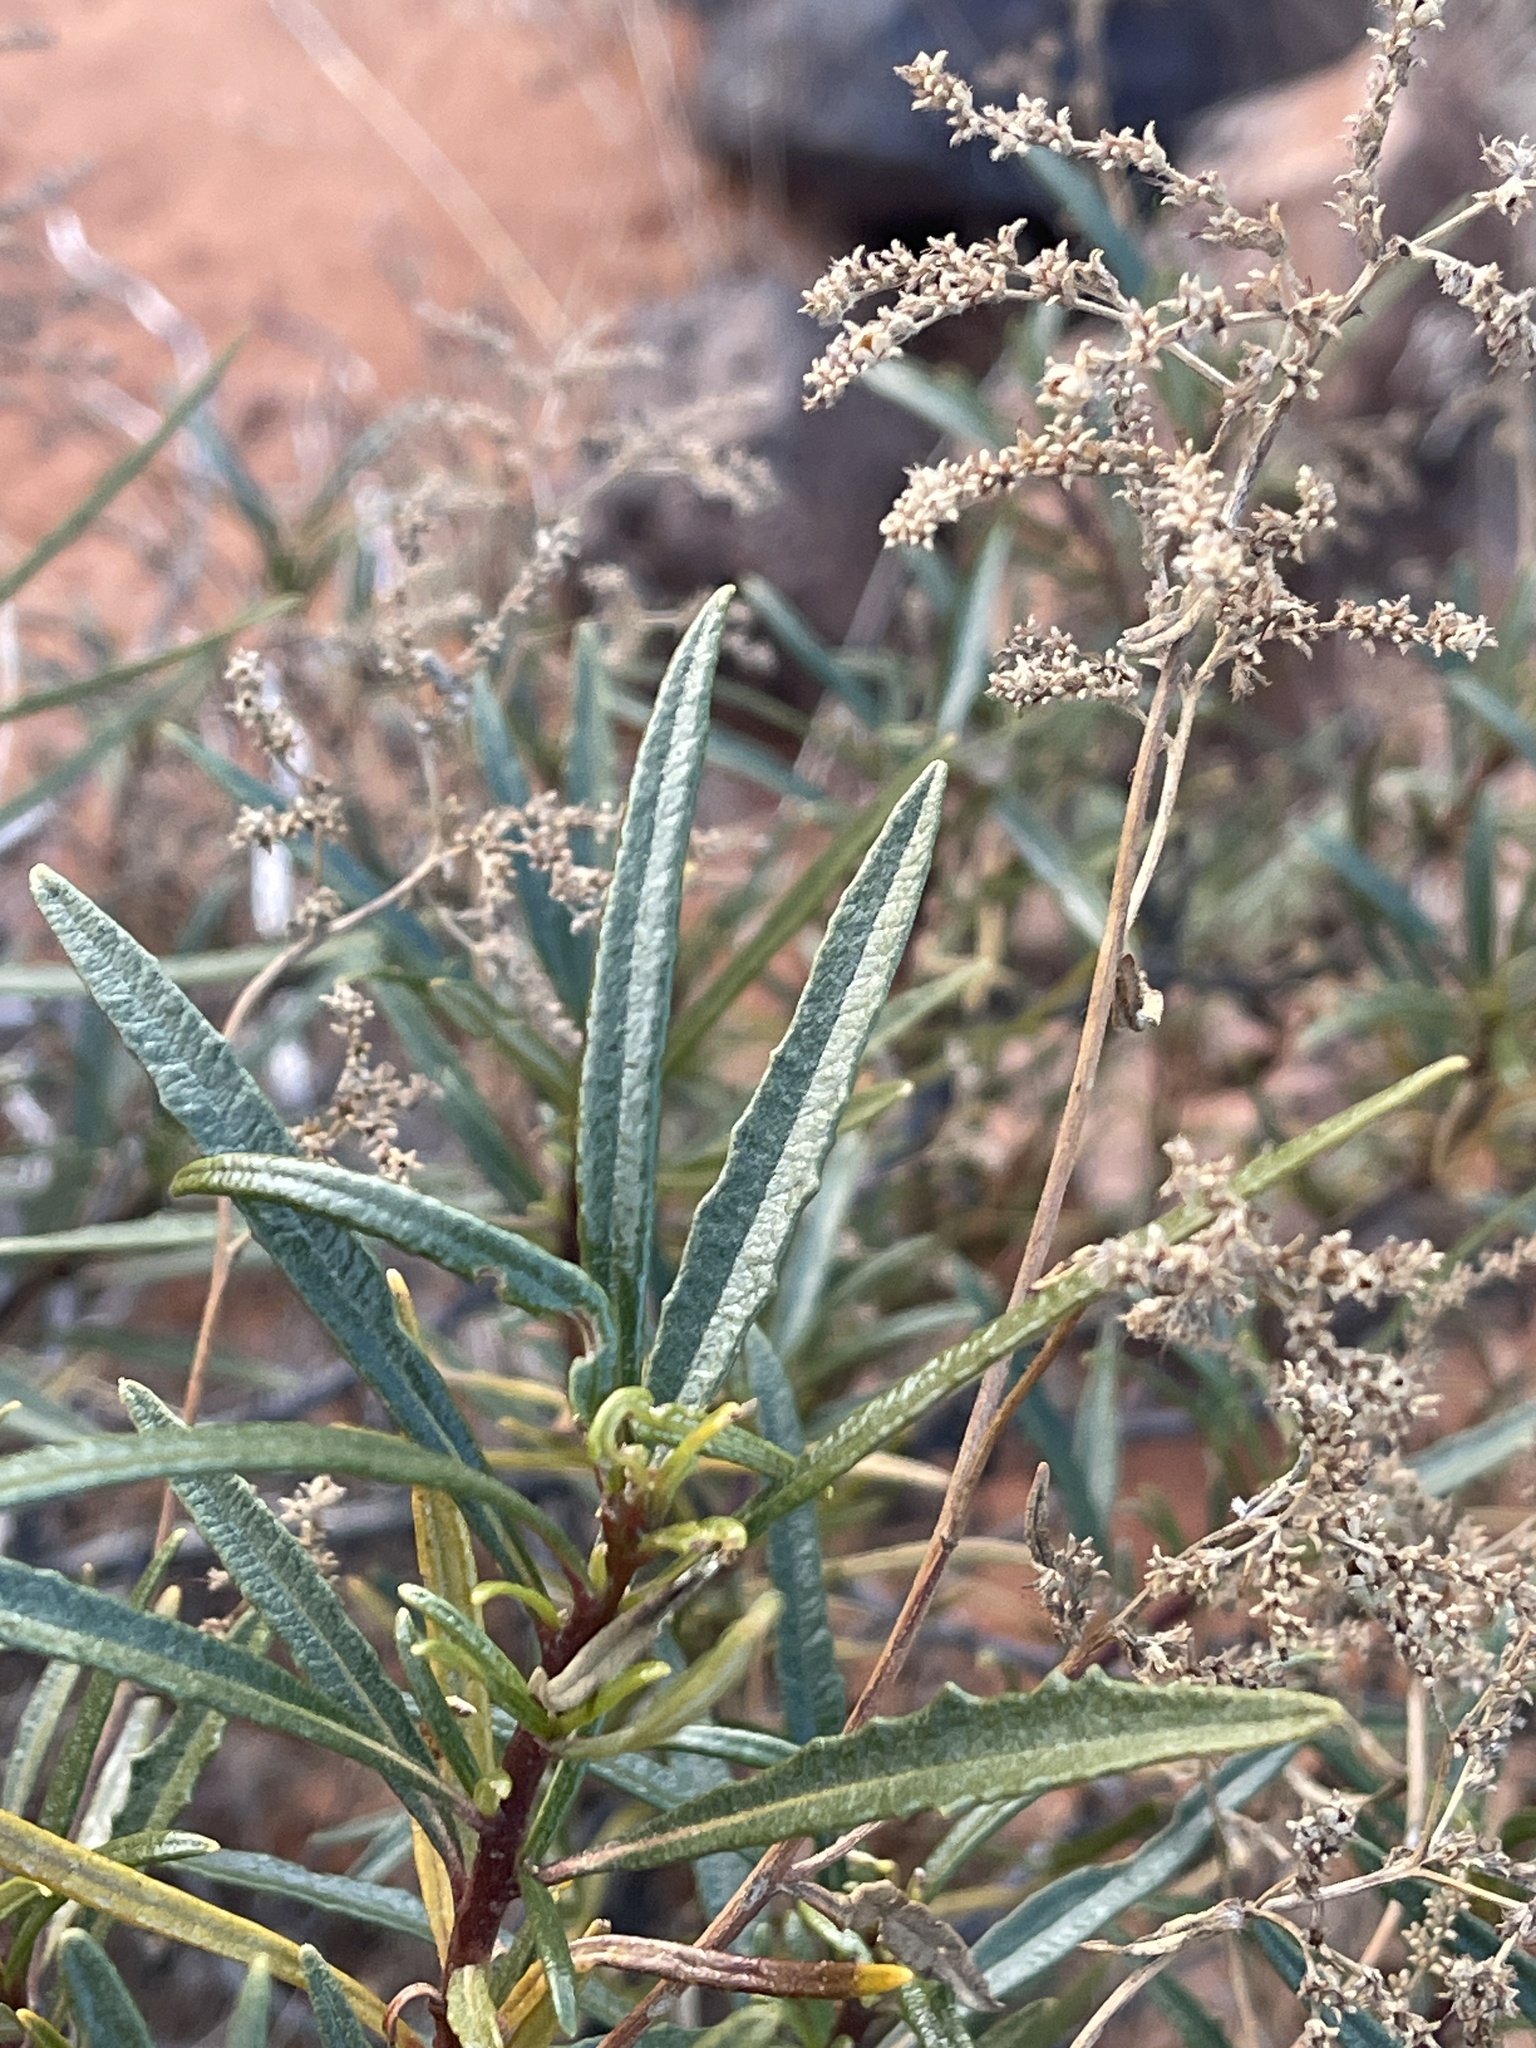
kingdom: Plantae
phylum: Tracheophyta
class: Magnoliopsida
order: Boraginales
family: Namaceae
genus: Eriodictyon
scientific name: Eriodictyon angustifolium
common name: Narrow-leaf yerba santa
